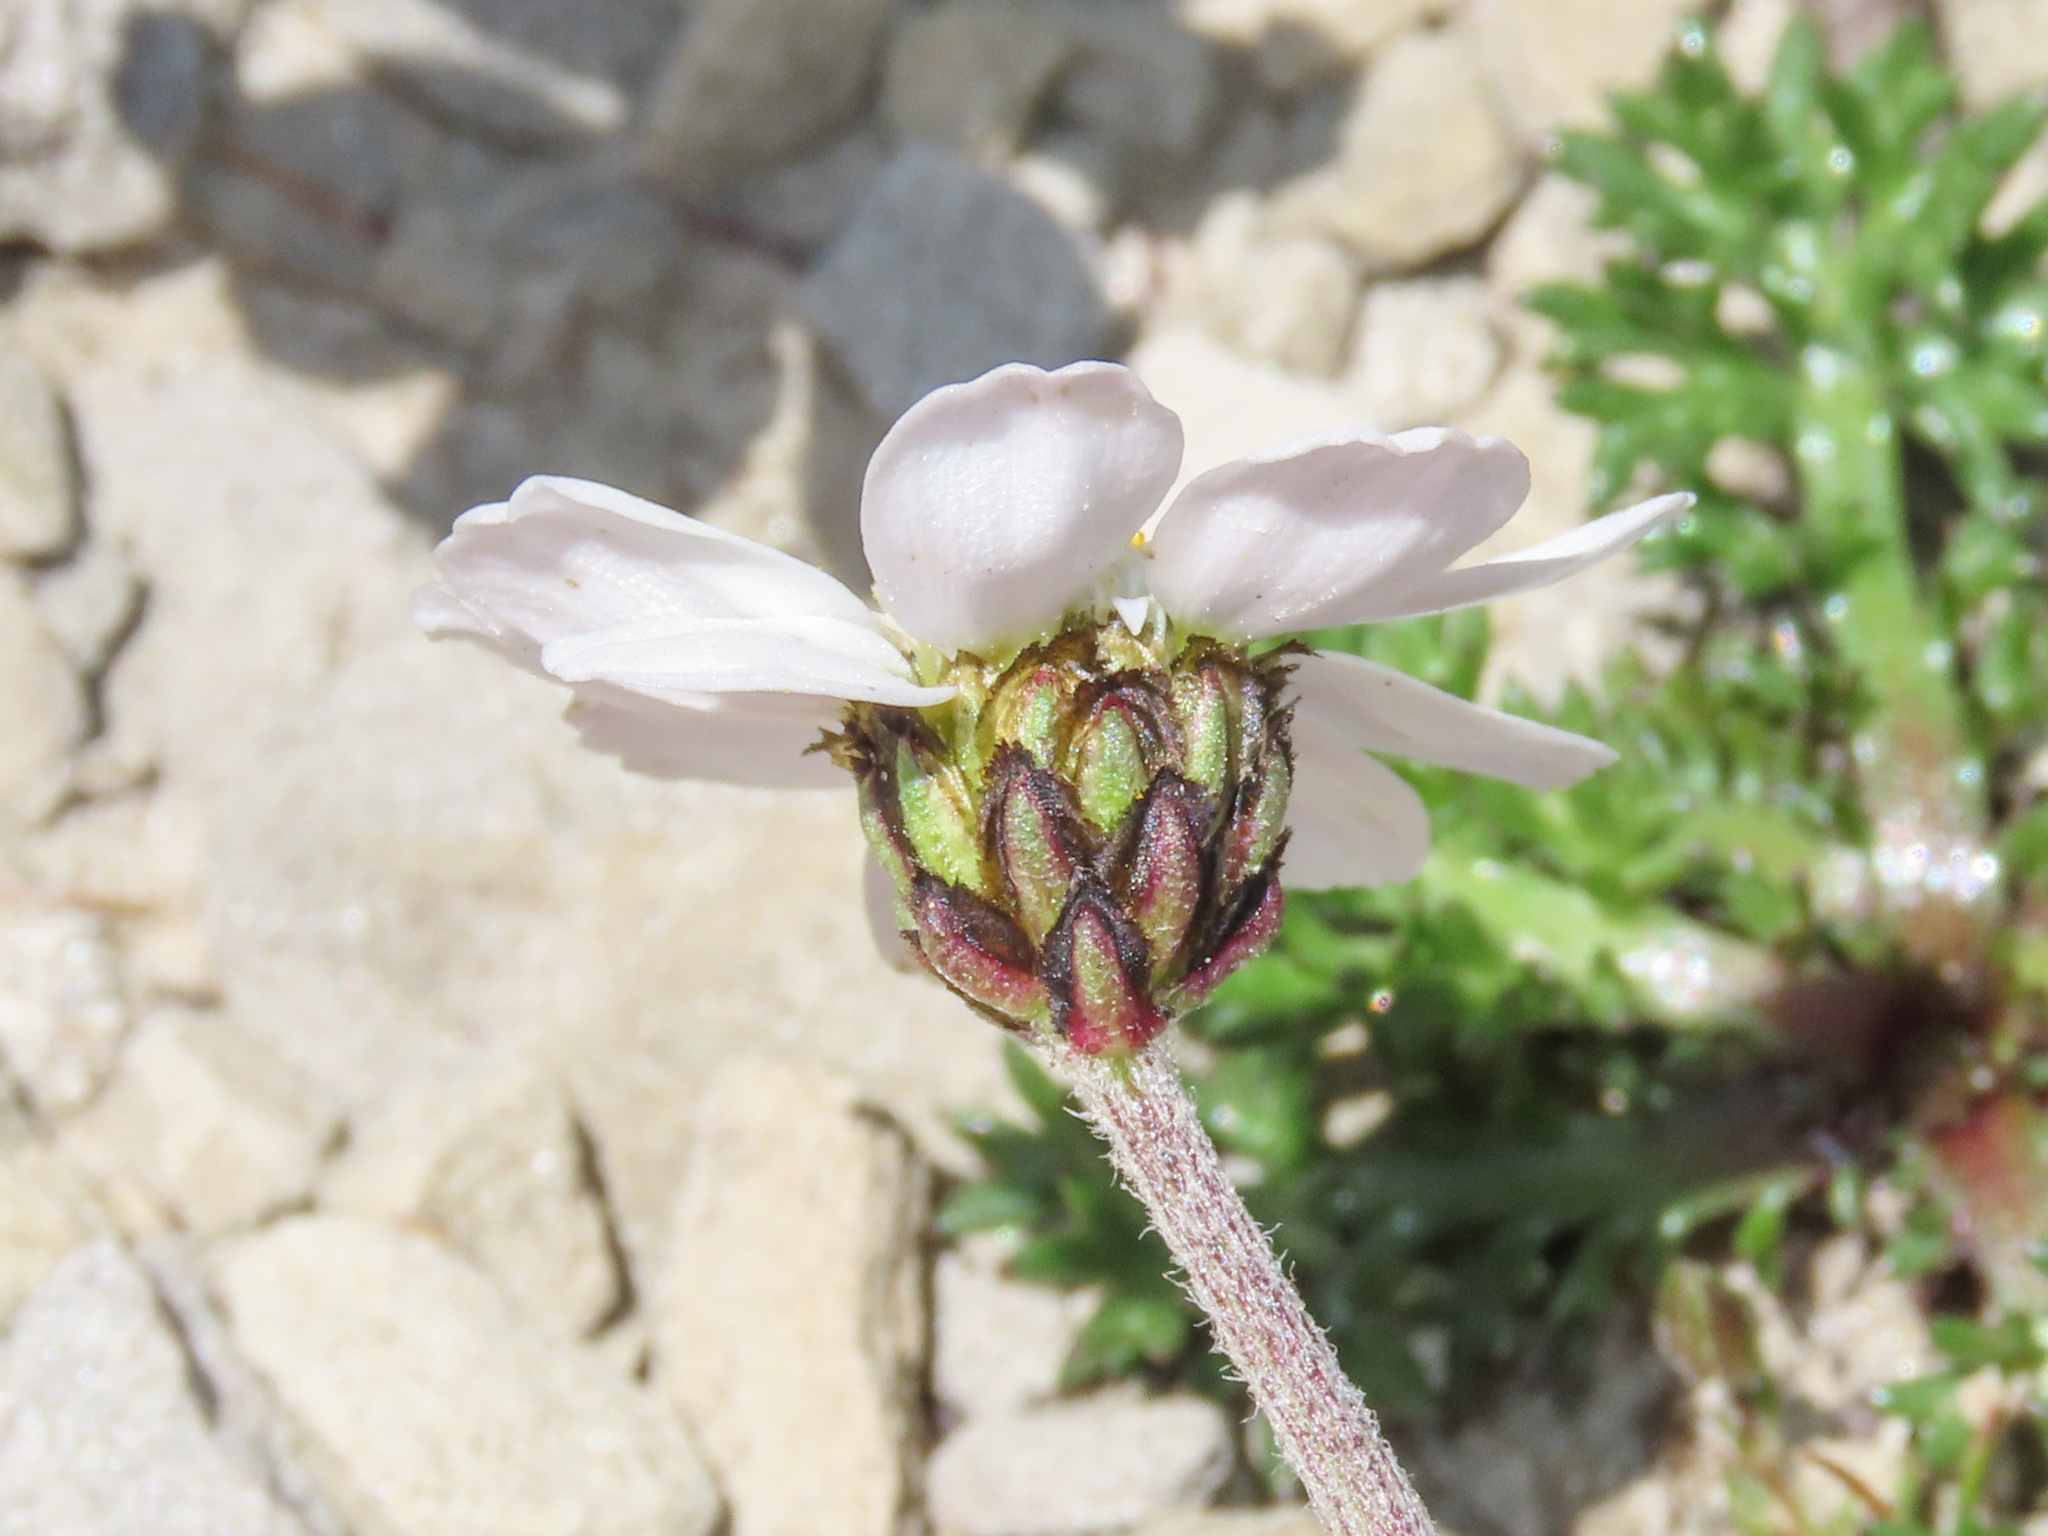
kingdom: Plantae
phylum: Tracheophyta
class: Magnoliopsida
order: Asterales
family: Asteraceae
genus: Achillea
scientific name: Achillea barrelieri
